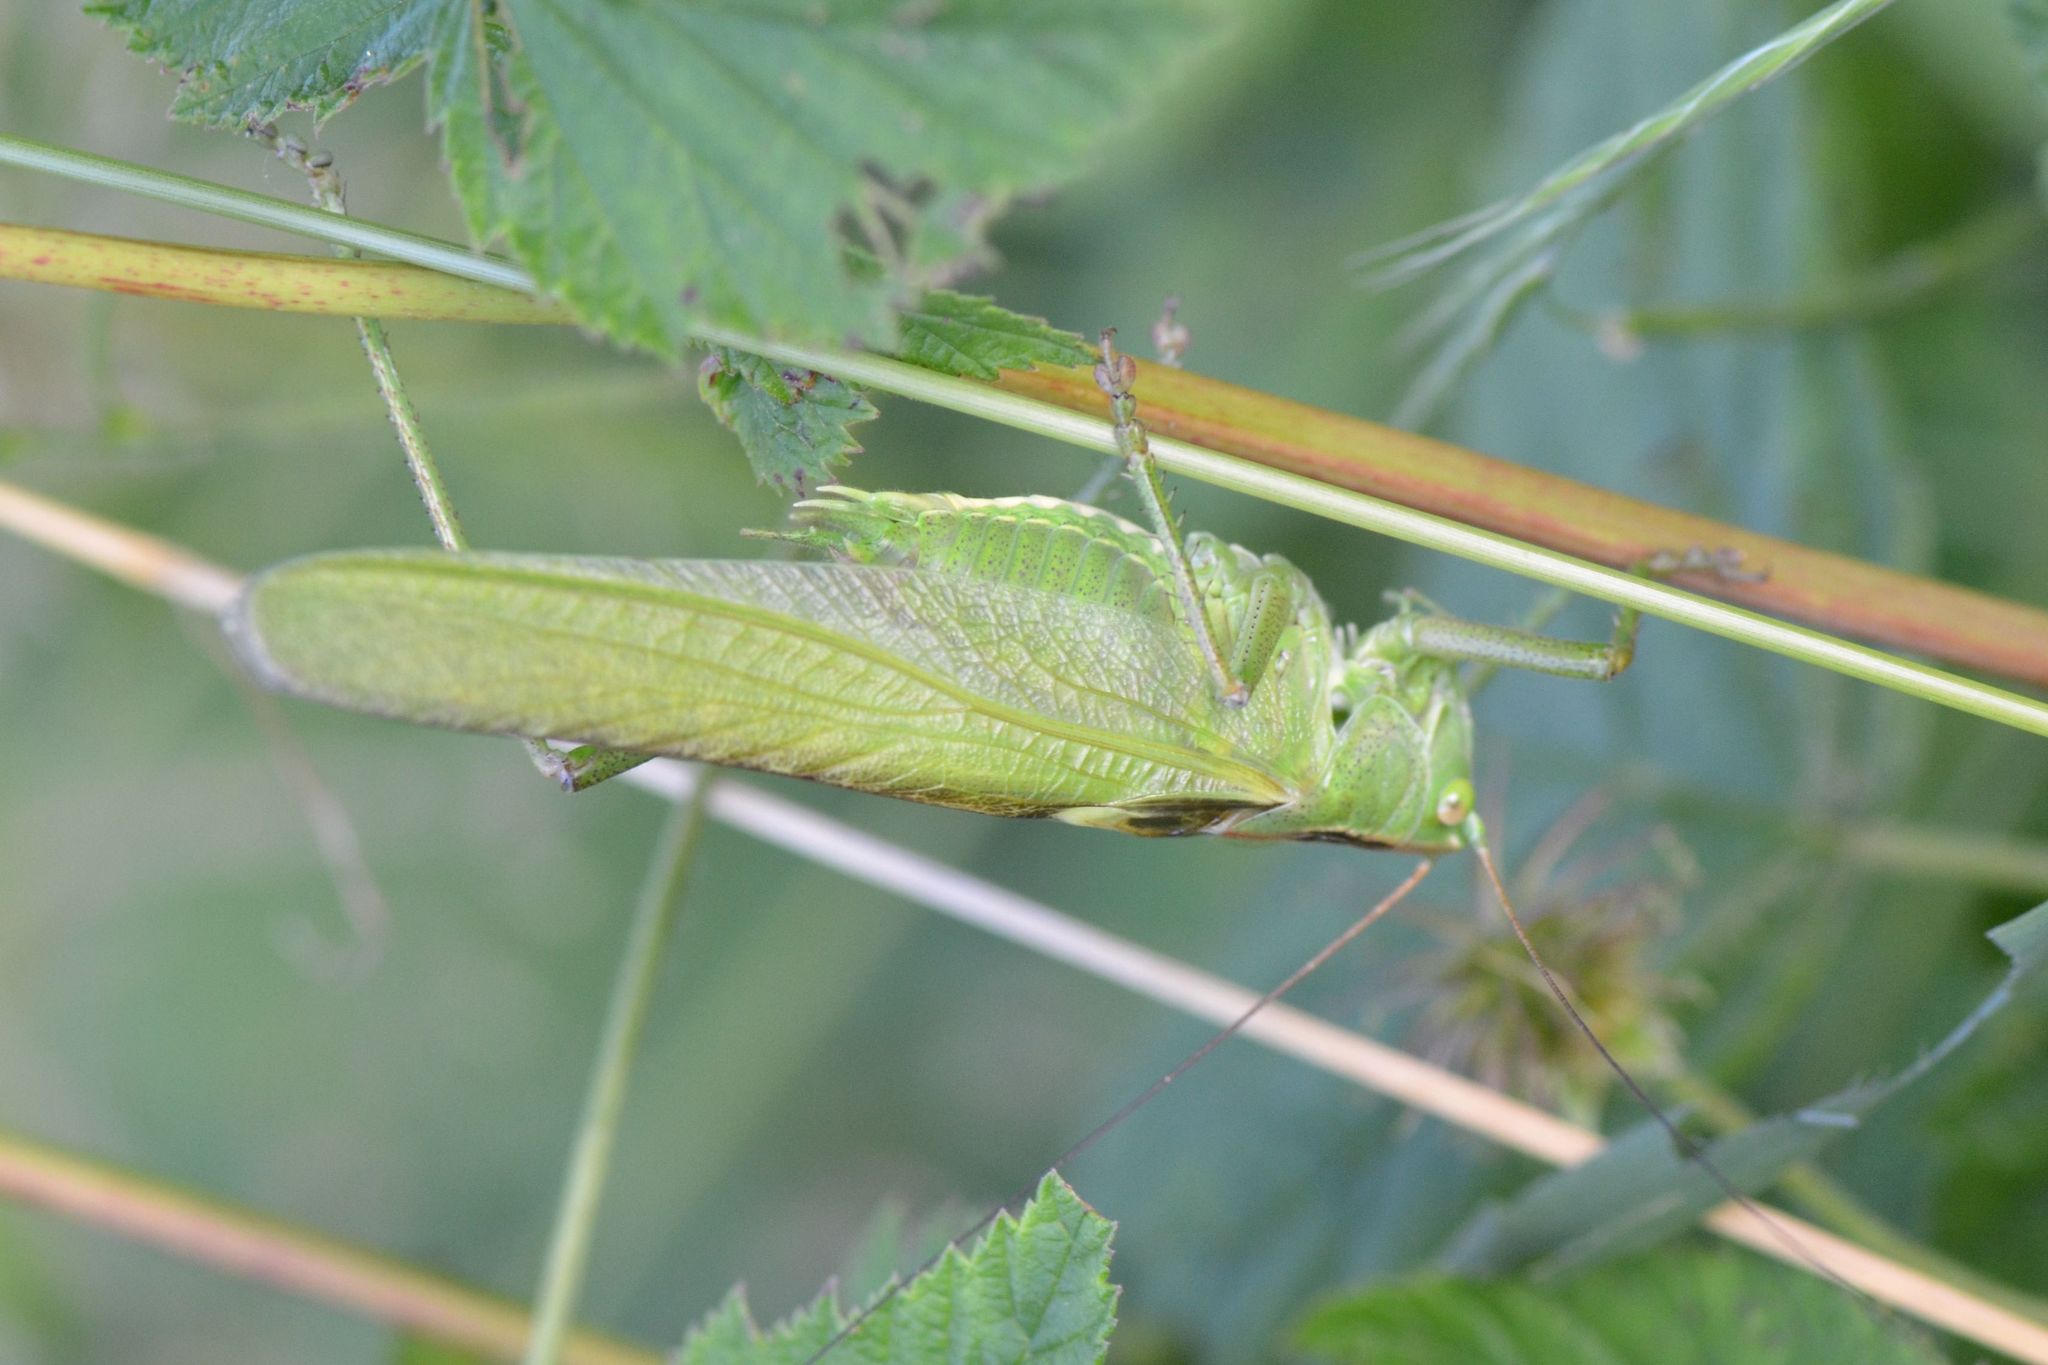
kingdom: Animalia
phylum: Arthropoda
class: Insecta
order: Orthoptera
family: Tettigoniidae
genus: Tettigonia
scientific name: Tettigonia viridissima
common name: Great green bush-cricket
